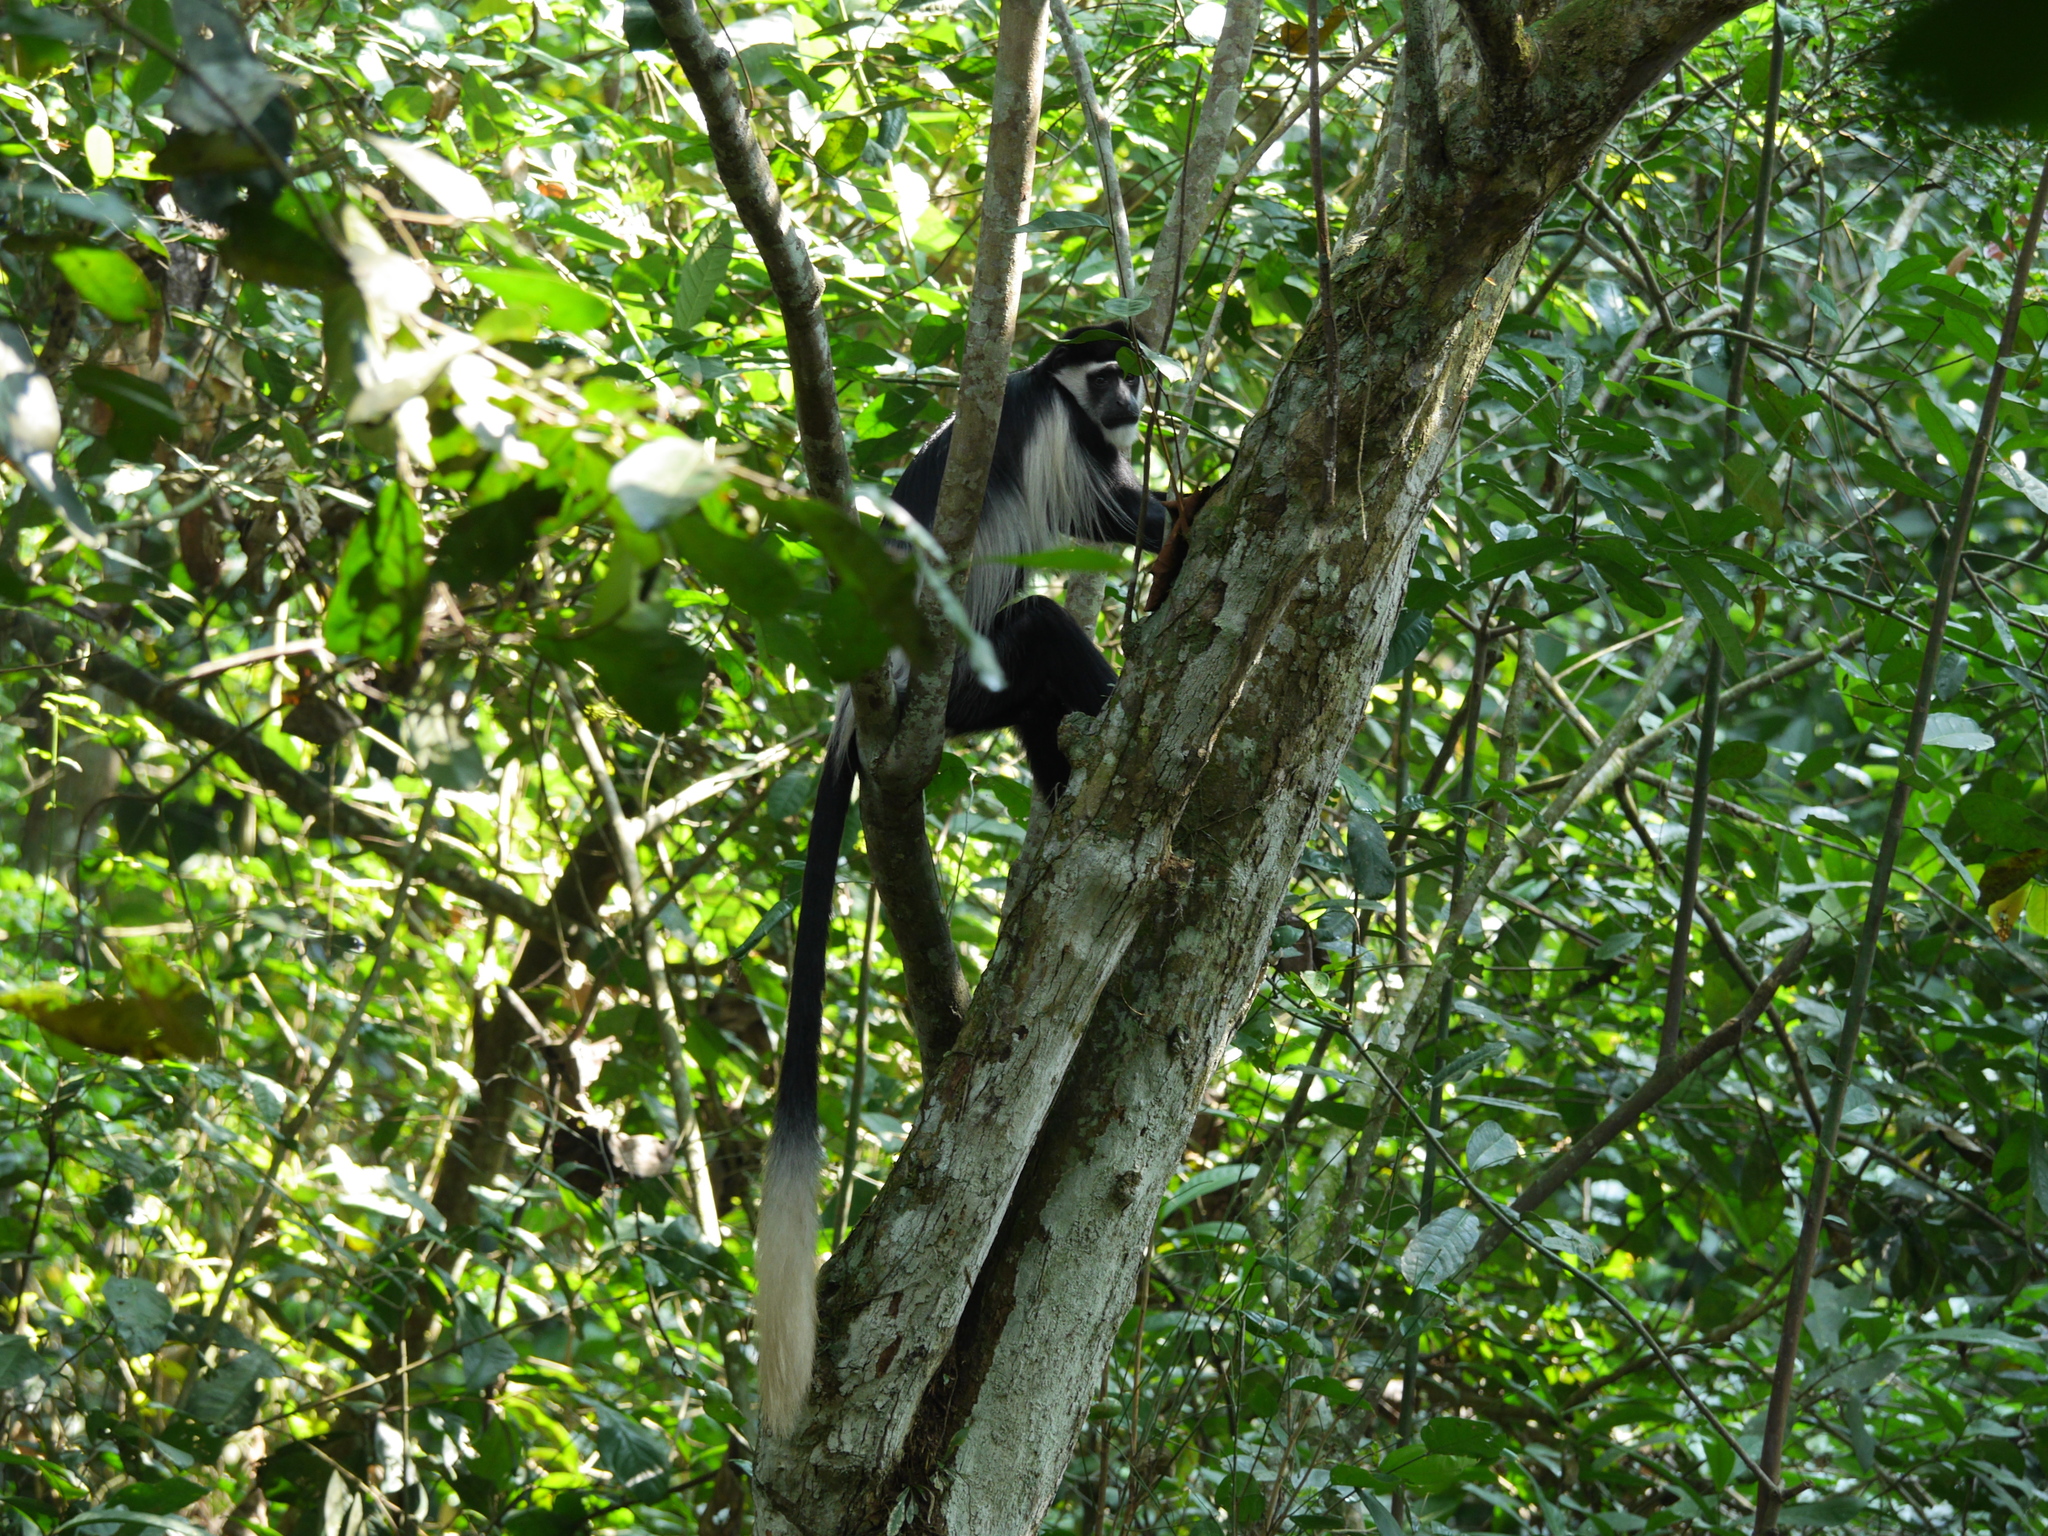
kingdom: Animalia
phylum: Chordata
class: Mammalia
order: Primates
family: Cercopithecidae
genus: Colobus
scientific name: Colobus guereza
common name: Mantled guereza
